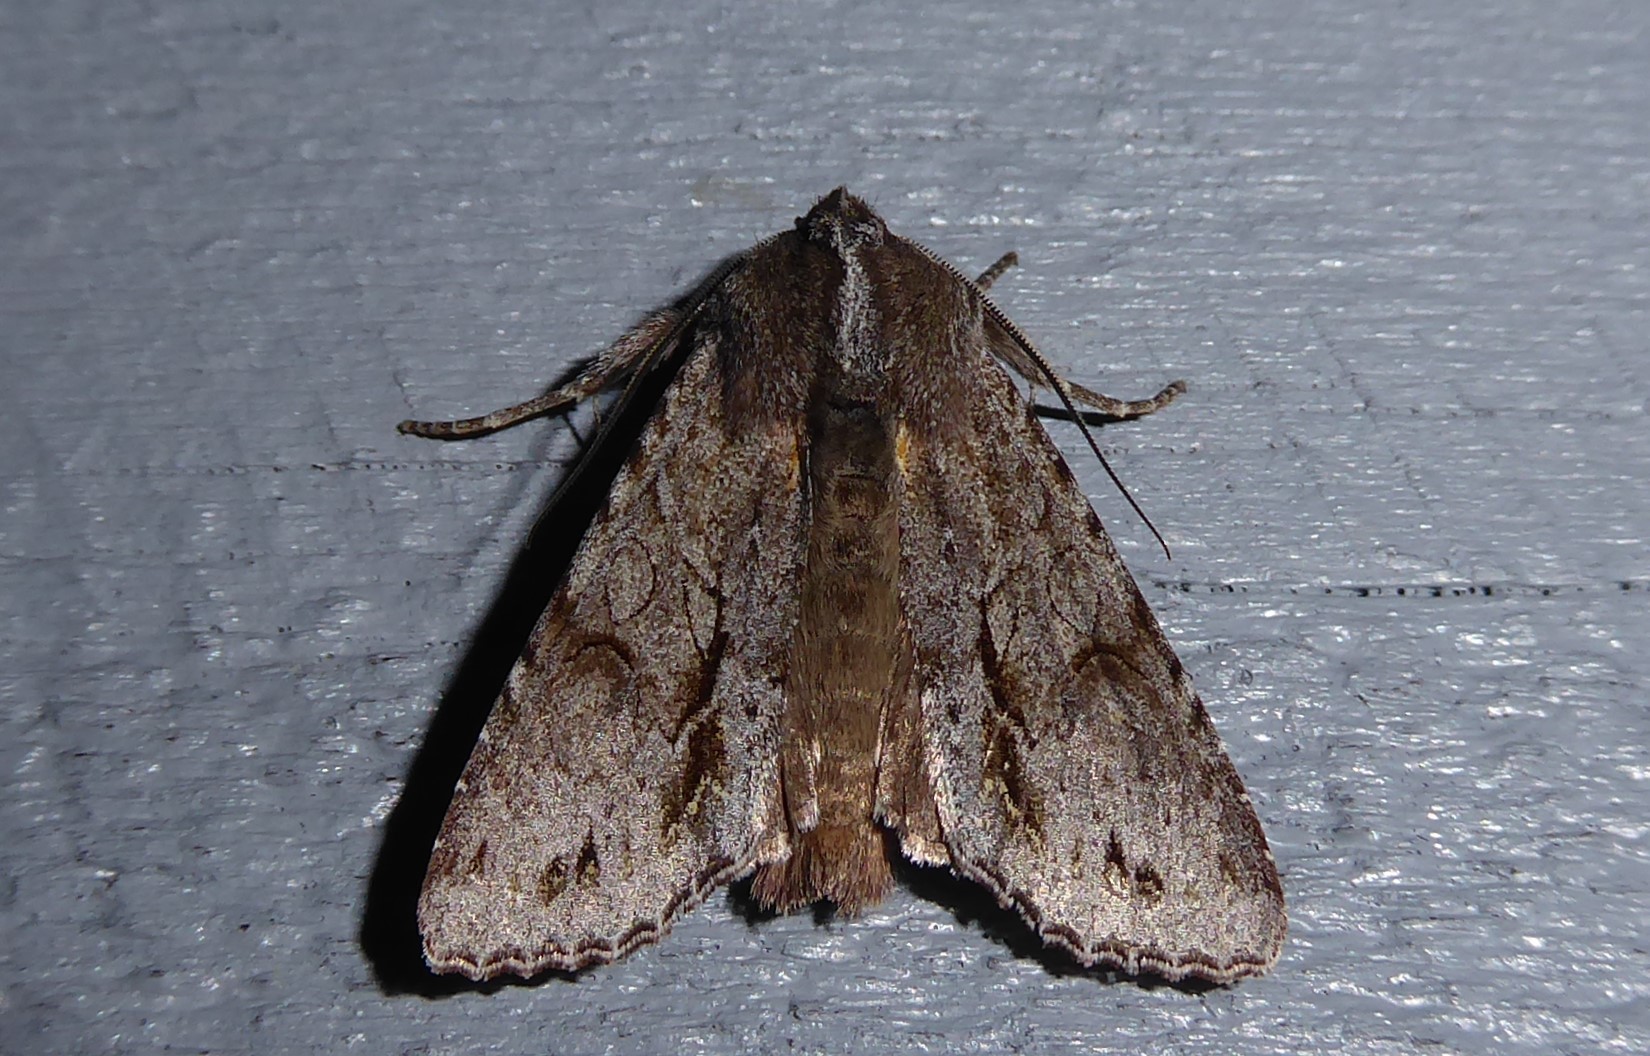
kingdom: Animalia
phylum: Arthropoda
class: Insecta
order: Lepidoptera
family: Noctuidae
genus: Ichneutica
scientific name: Ichneutica
